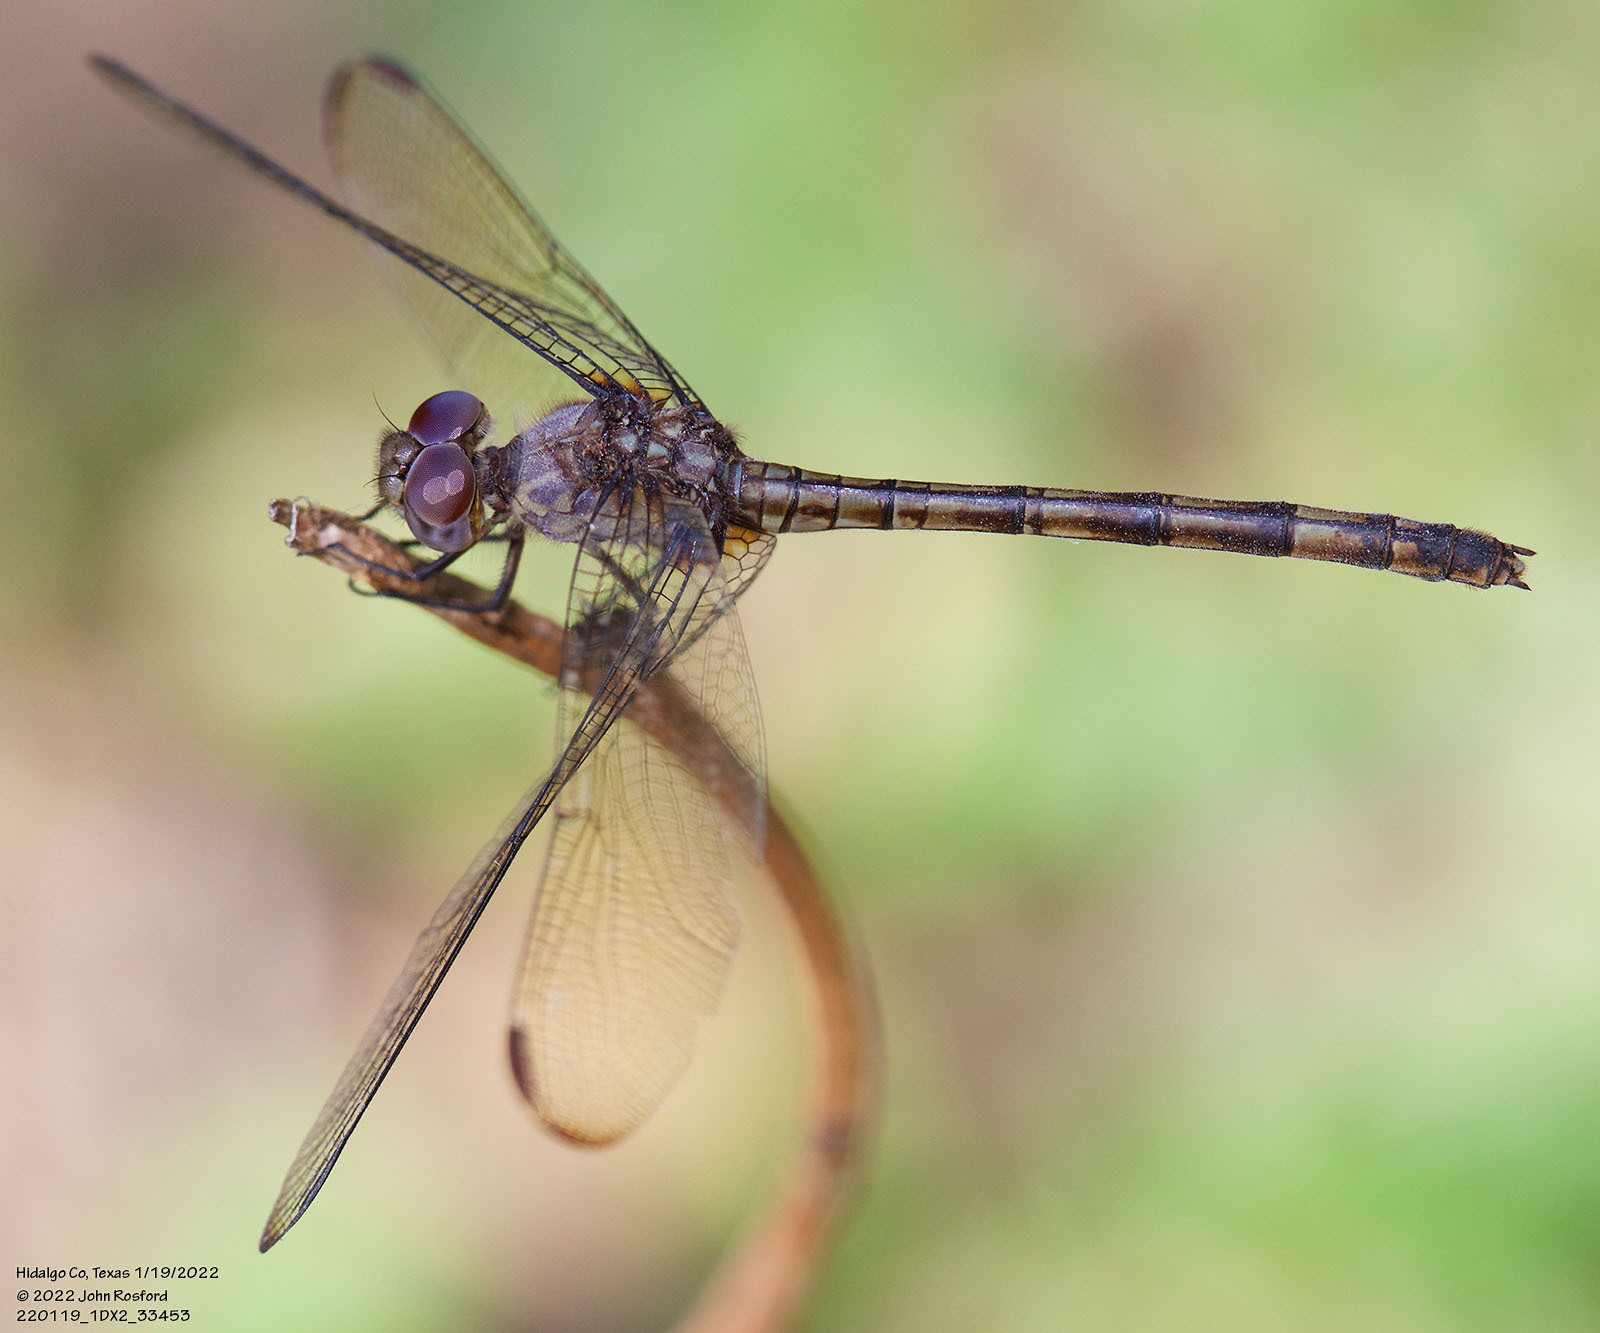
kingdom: Animalia
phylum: Arthropoda
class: Insecta
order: Odonata
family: Libellulidae
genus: Dythemis
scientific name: Dythemis nigrescens
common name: Black setwing
